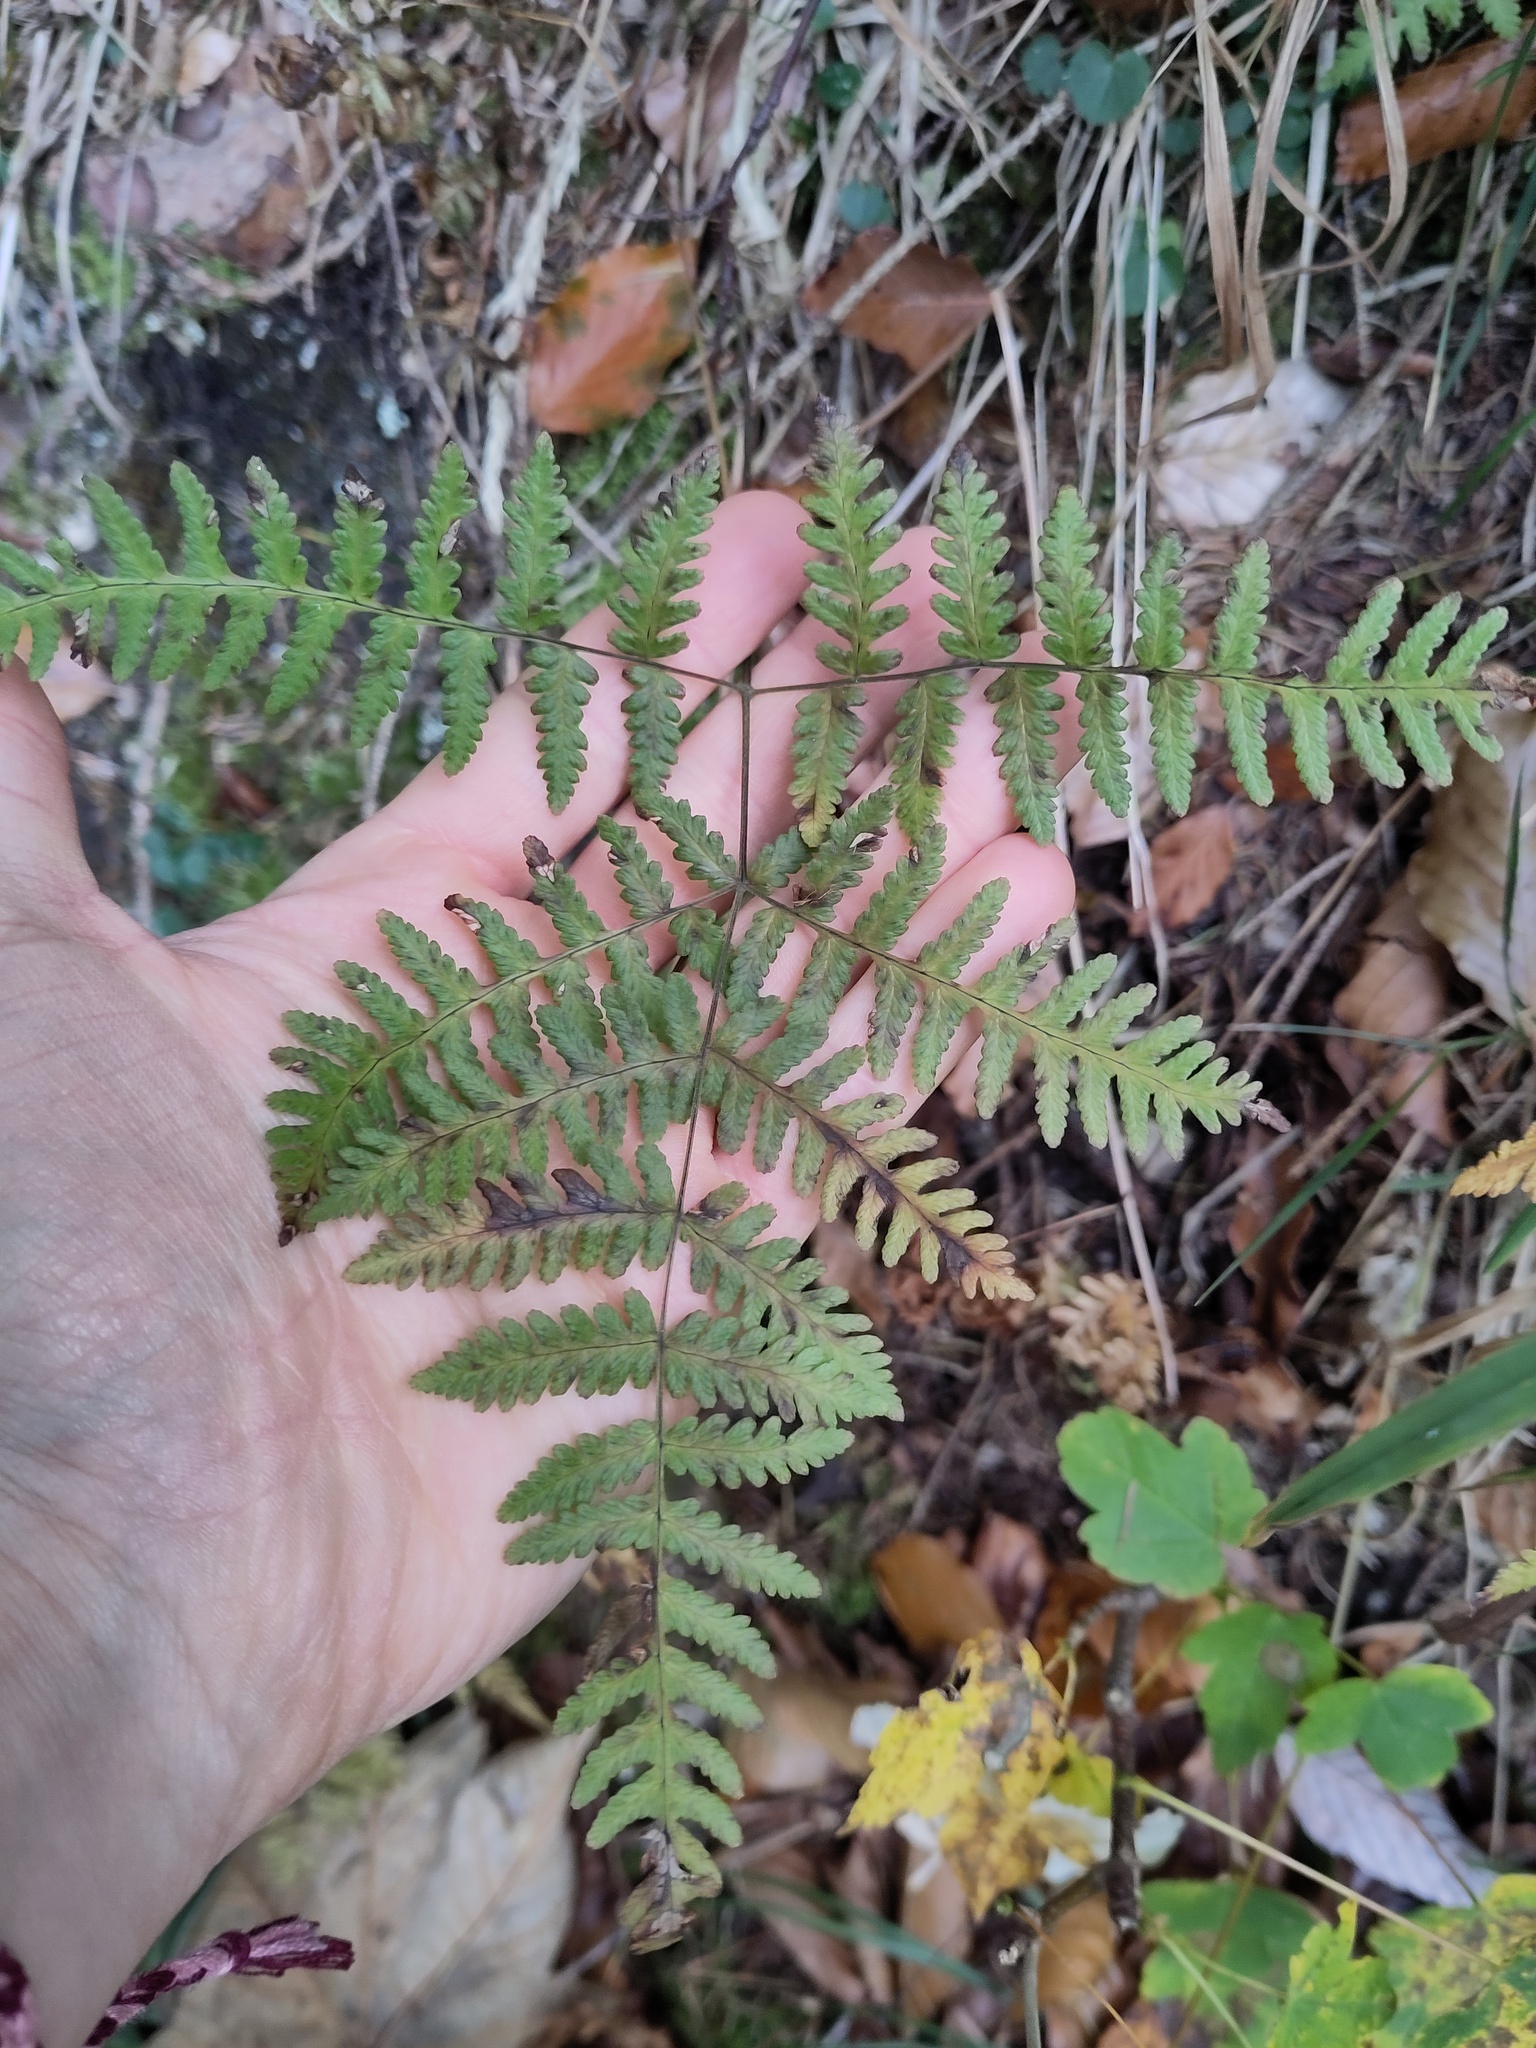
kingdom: Plantae
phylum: Tracheophyta
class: Polypodiopsida
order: Polypodiales
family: Cystopteridaceae
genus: Gymnocarpium
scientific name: Gymnocarpium robertianum
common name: Limestone fern
